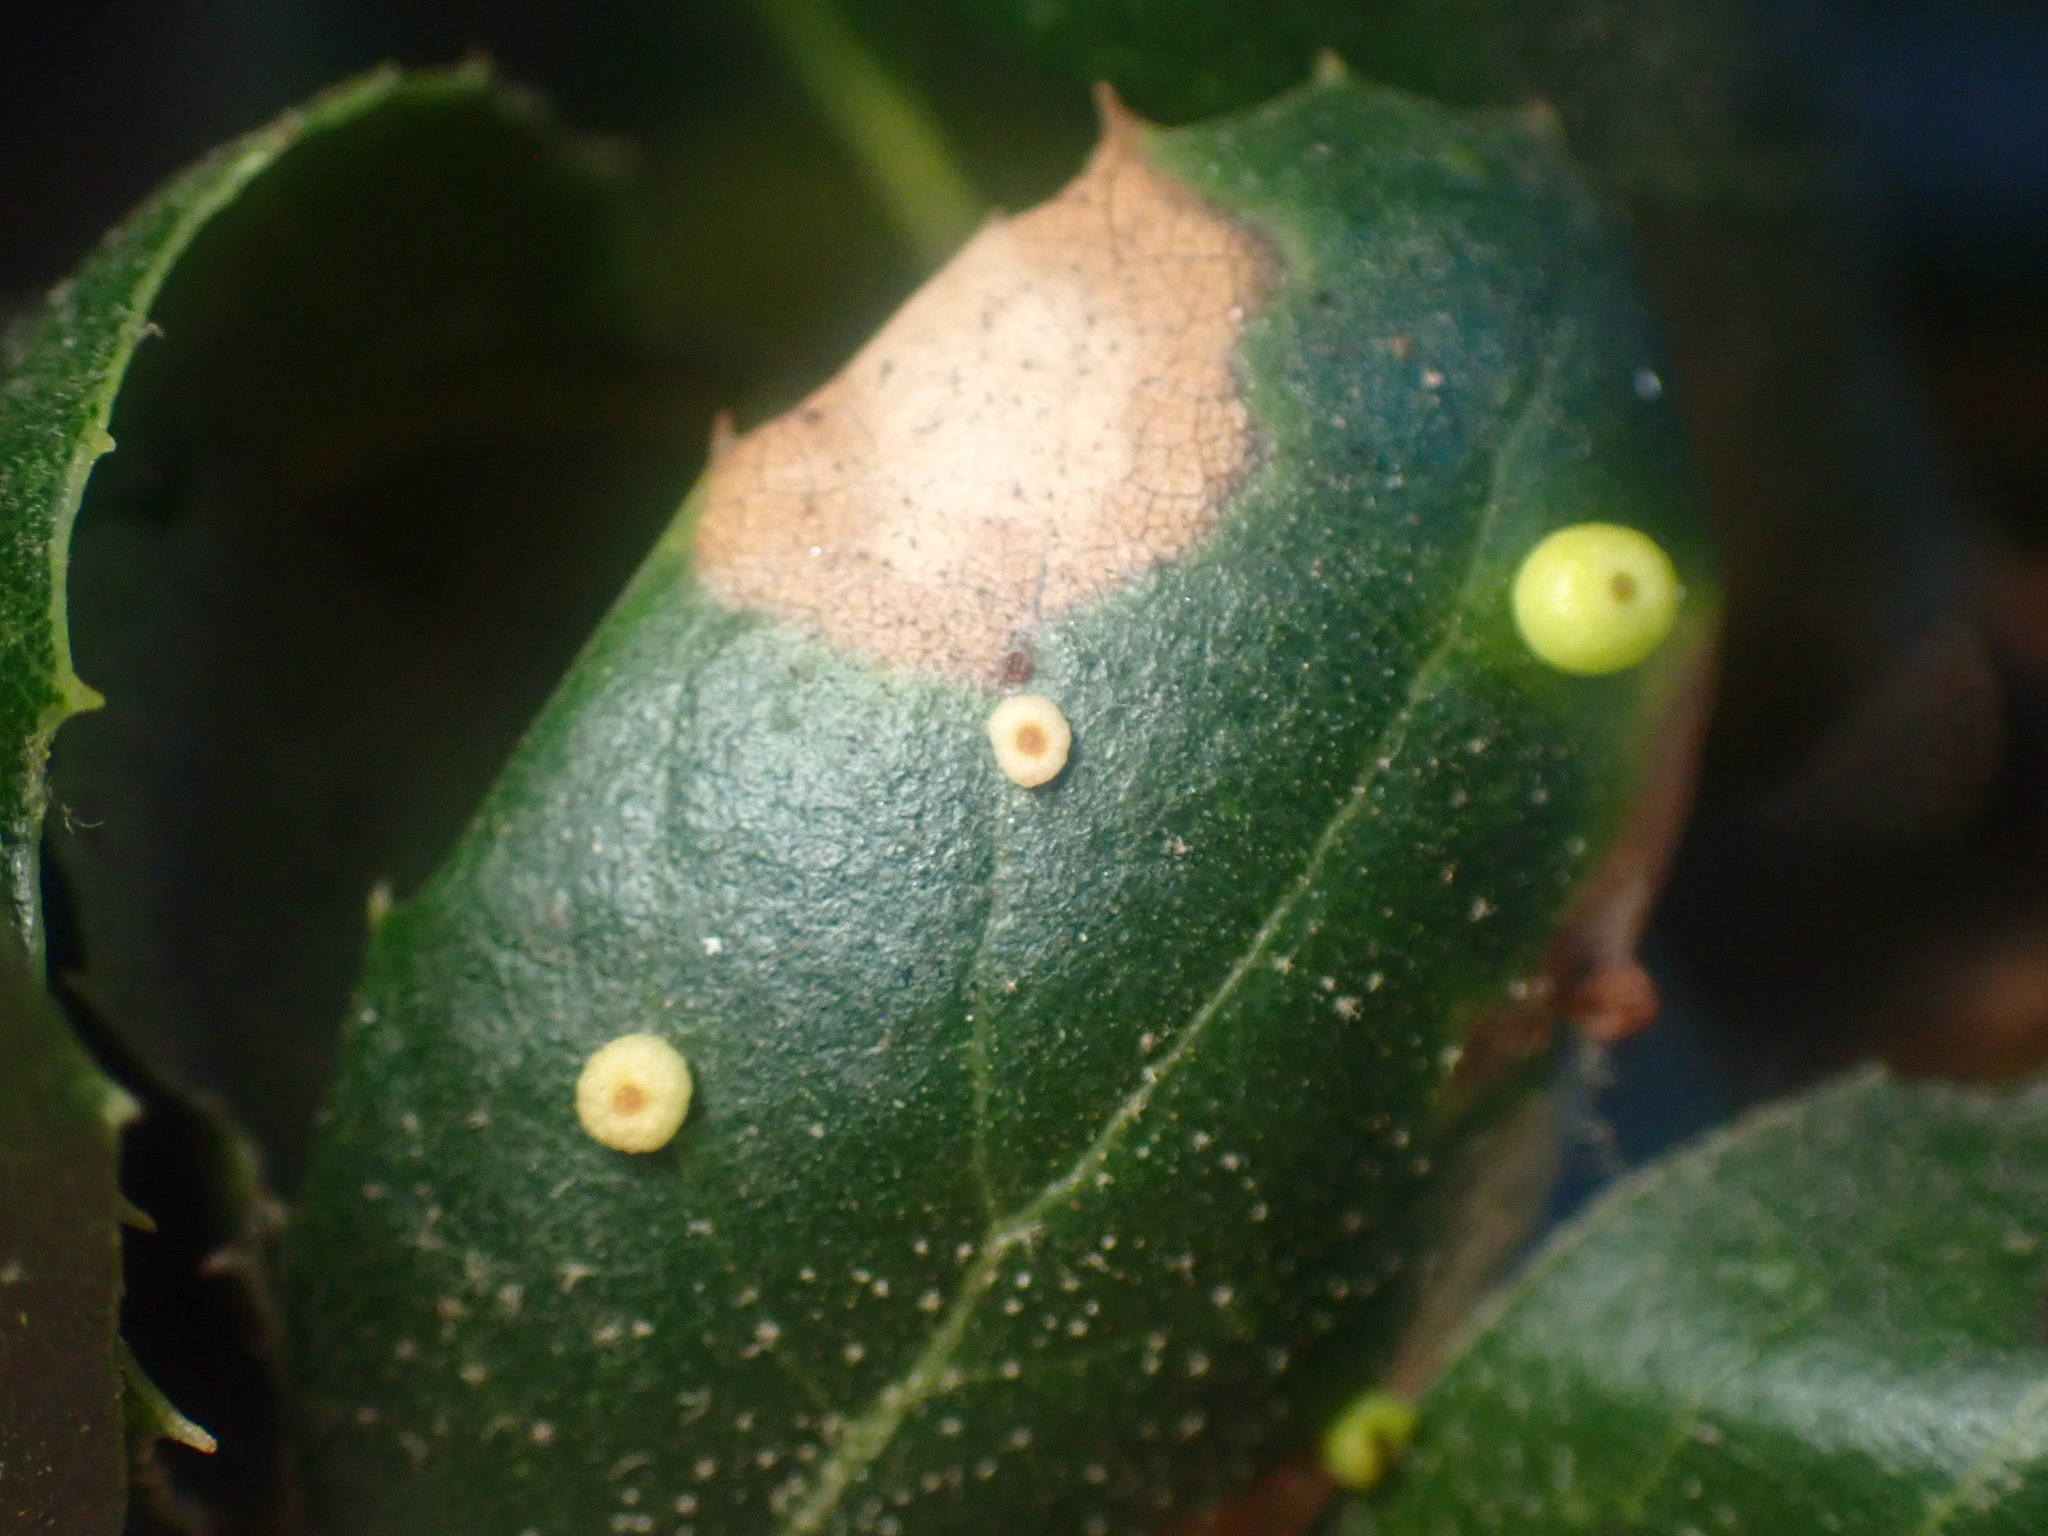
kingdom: Animalia
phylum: Arthropoda
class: Insecta
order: Hymenoptera
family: Cynipidae
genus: Dryocosmus
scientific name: Dryocosmus
